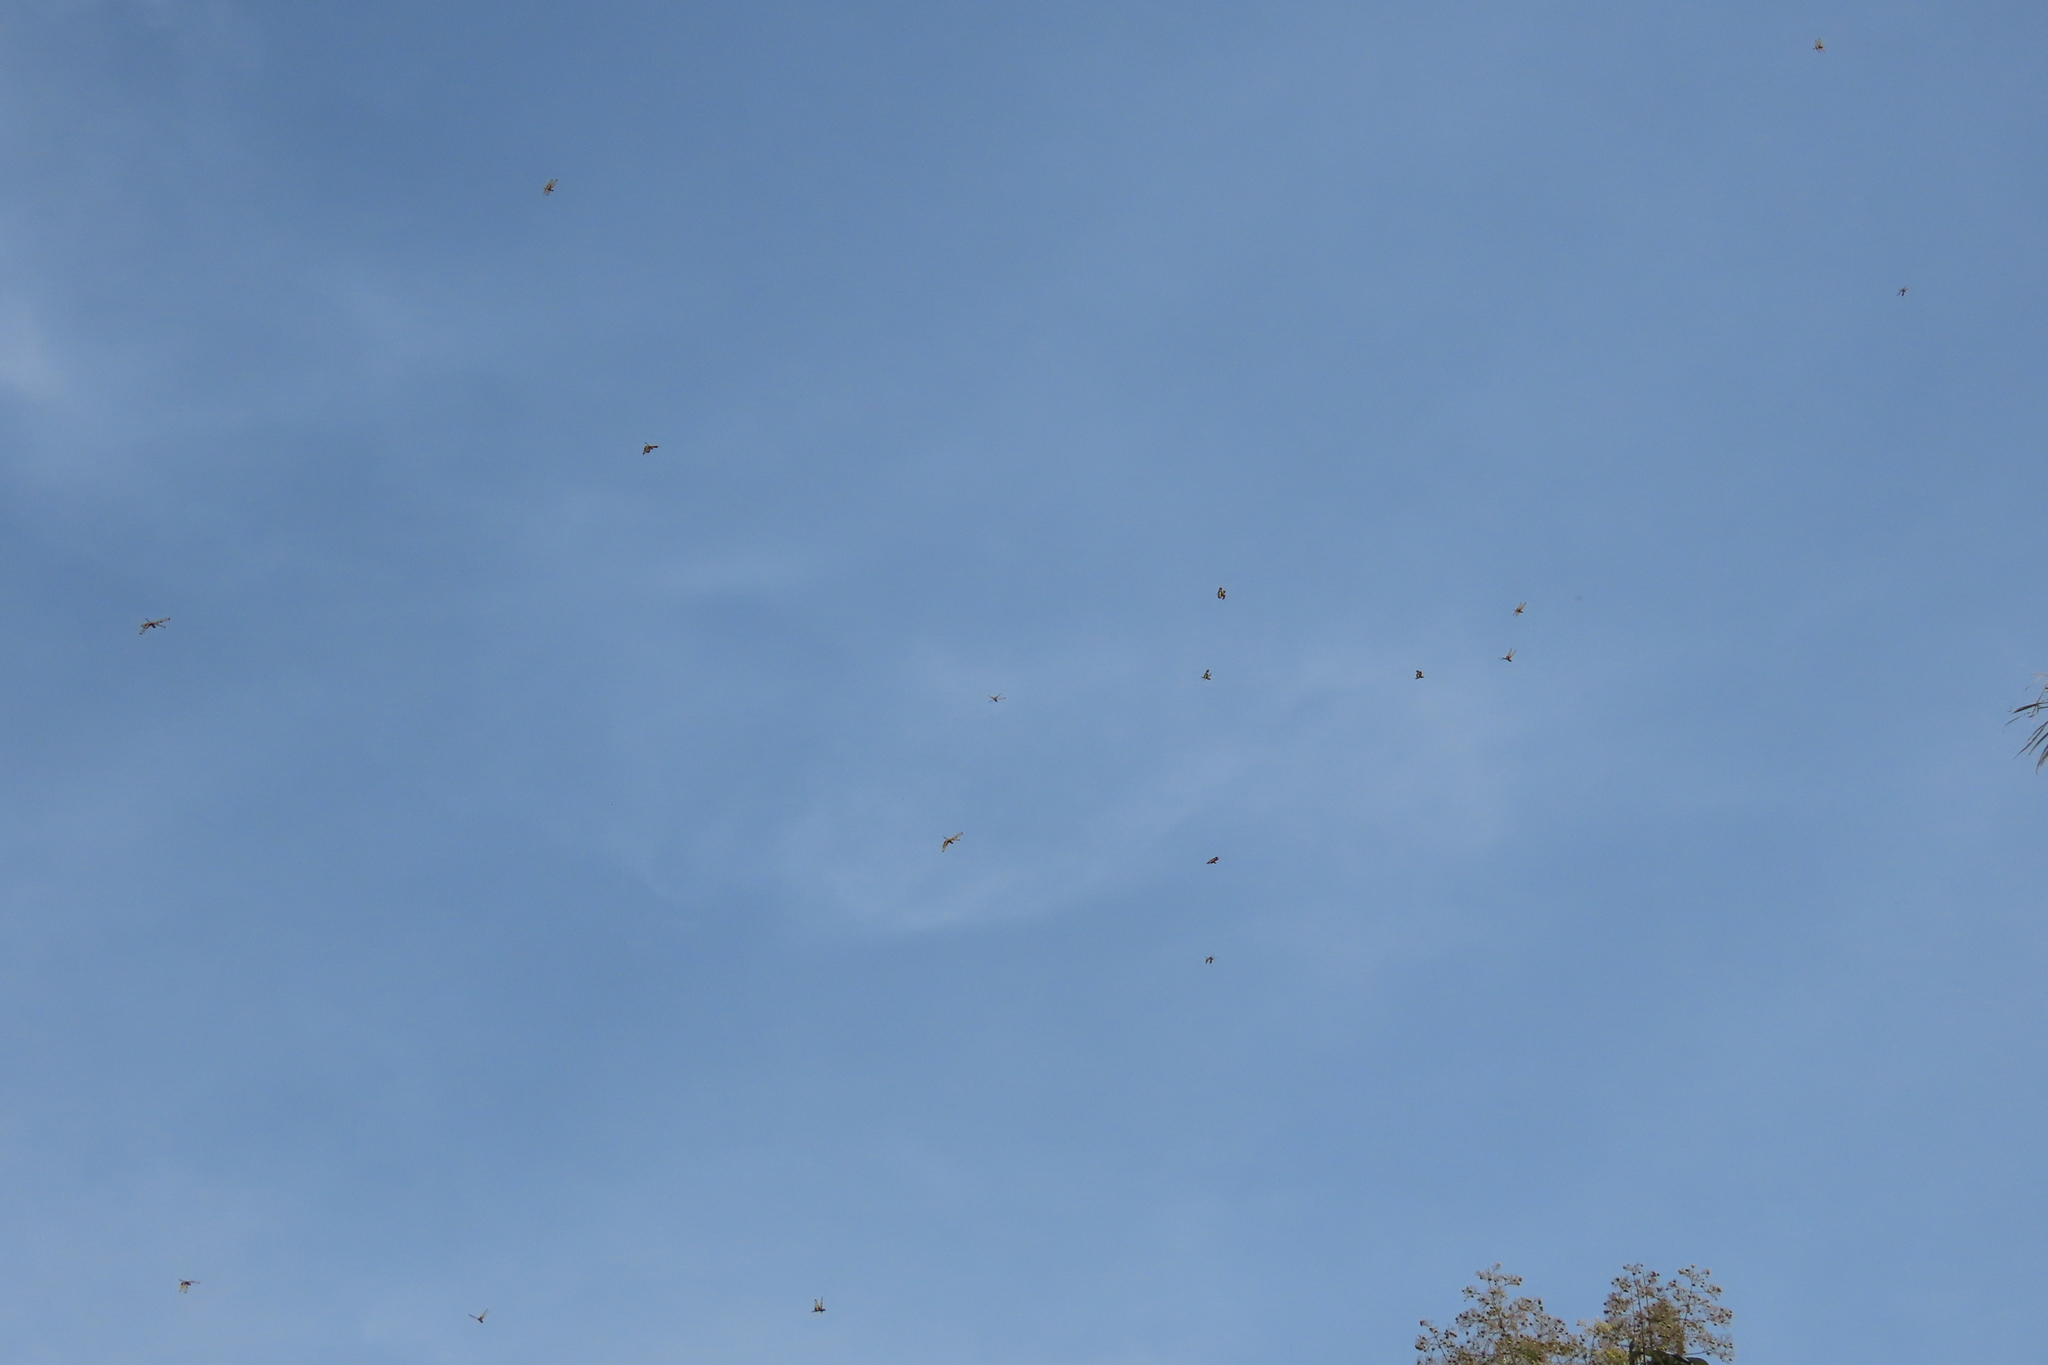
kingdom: Animalia
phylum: Arthropoda
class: Insecta
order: Odonata
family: Libellulidae
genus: Rhyothemis
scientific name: Rhyothemis variegata
